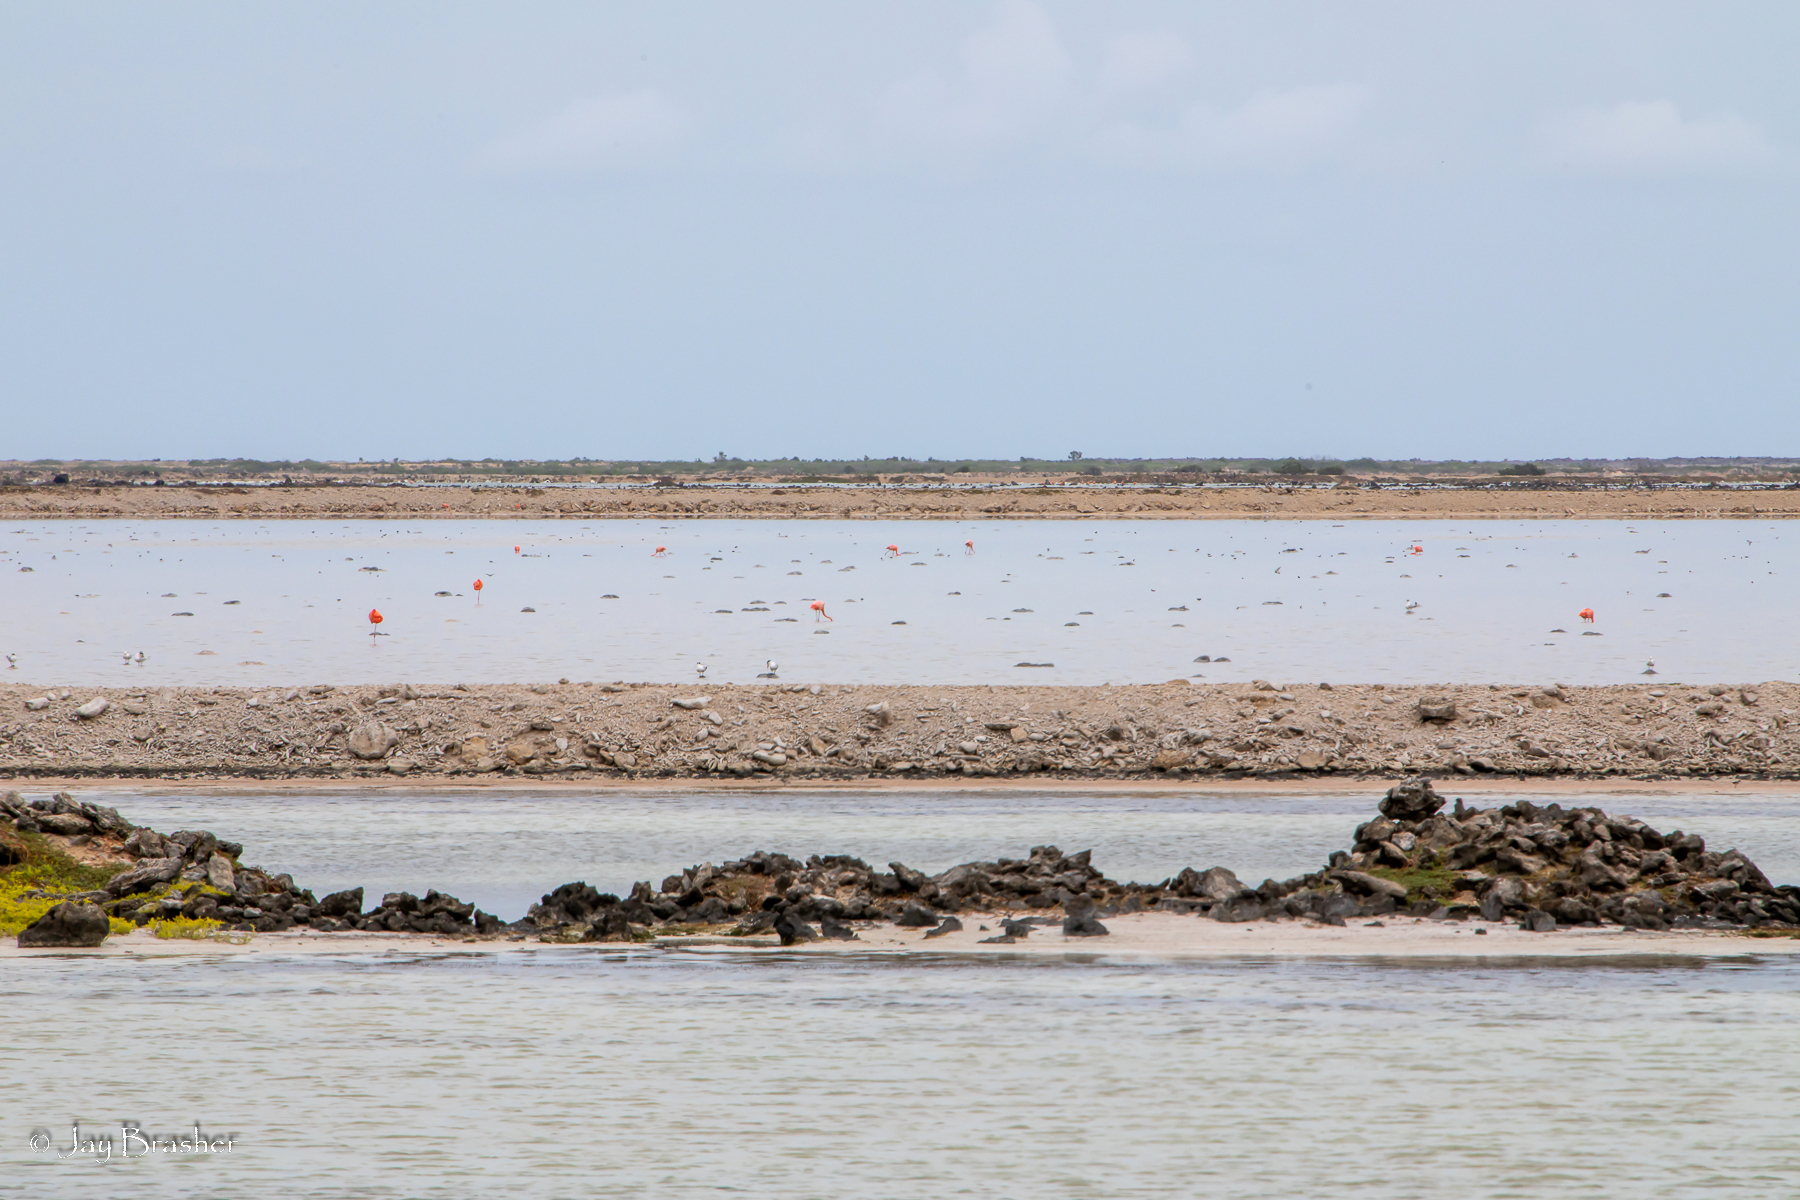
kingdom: Animalia
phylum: Chordata
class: Aves
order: Phoenicopteriformes
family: Phoenicopteridae
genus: Phoenicopterus
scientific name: Phoenicopterus ruber
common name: American flamingo
